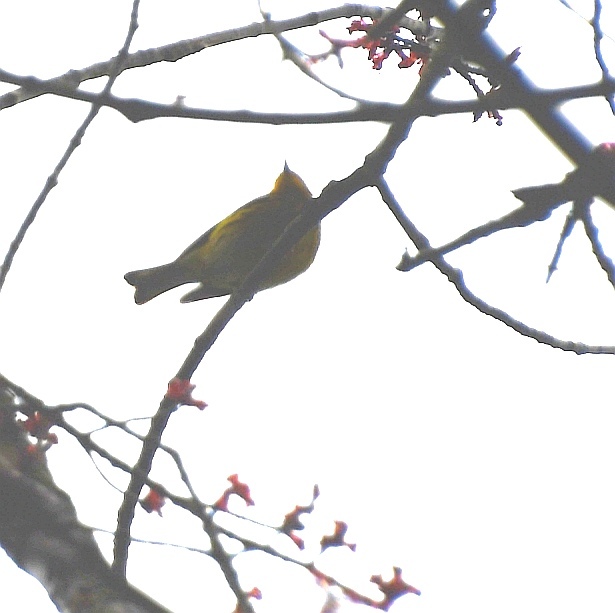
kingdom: Animalia
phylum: Chordata
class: Aves
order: Passeriformes
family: Parulidae
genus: Setophaga
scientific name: Setophaga tigrina
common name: Cape may warbler
